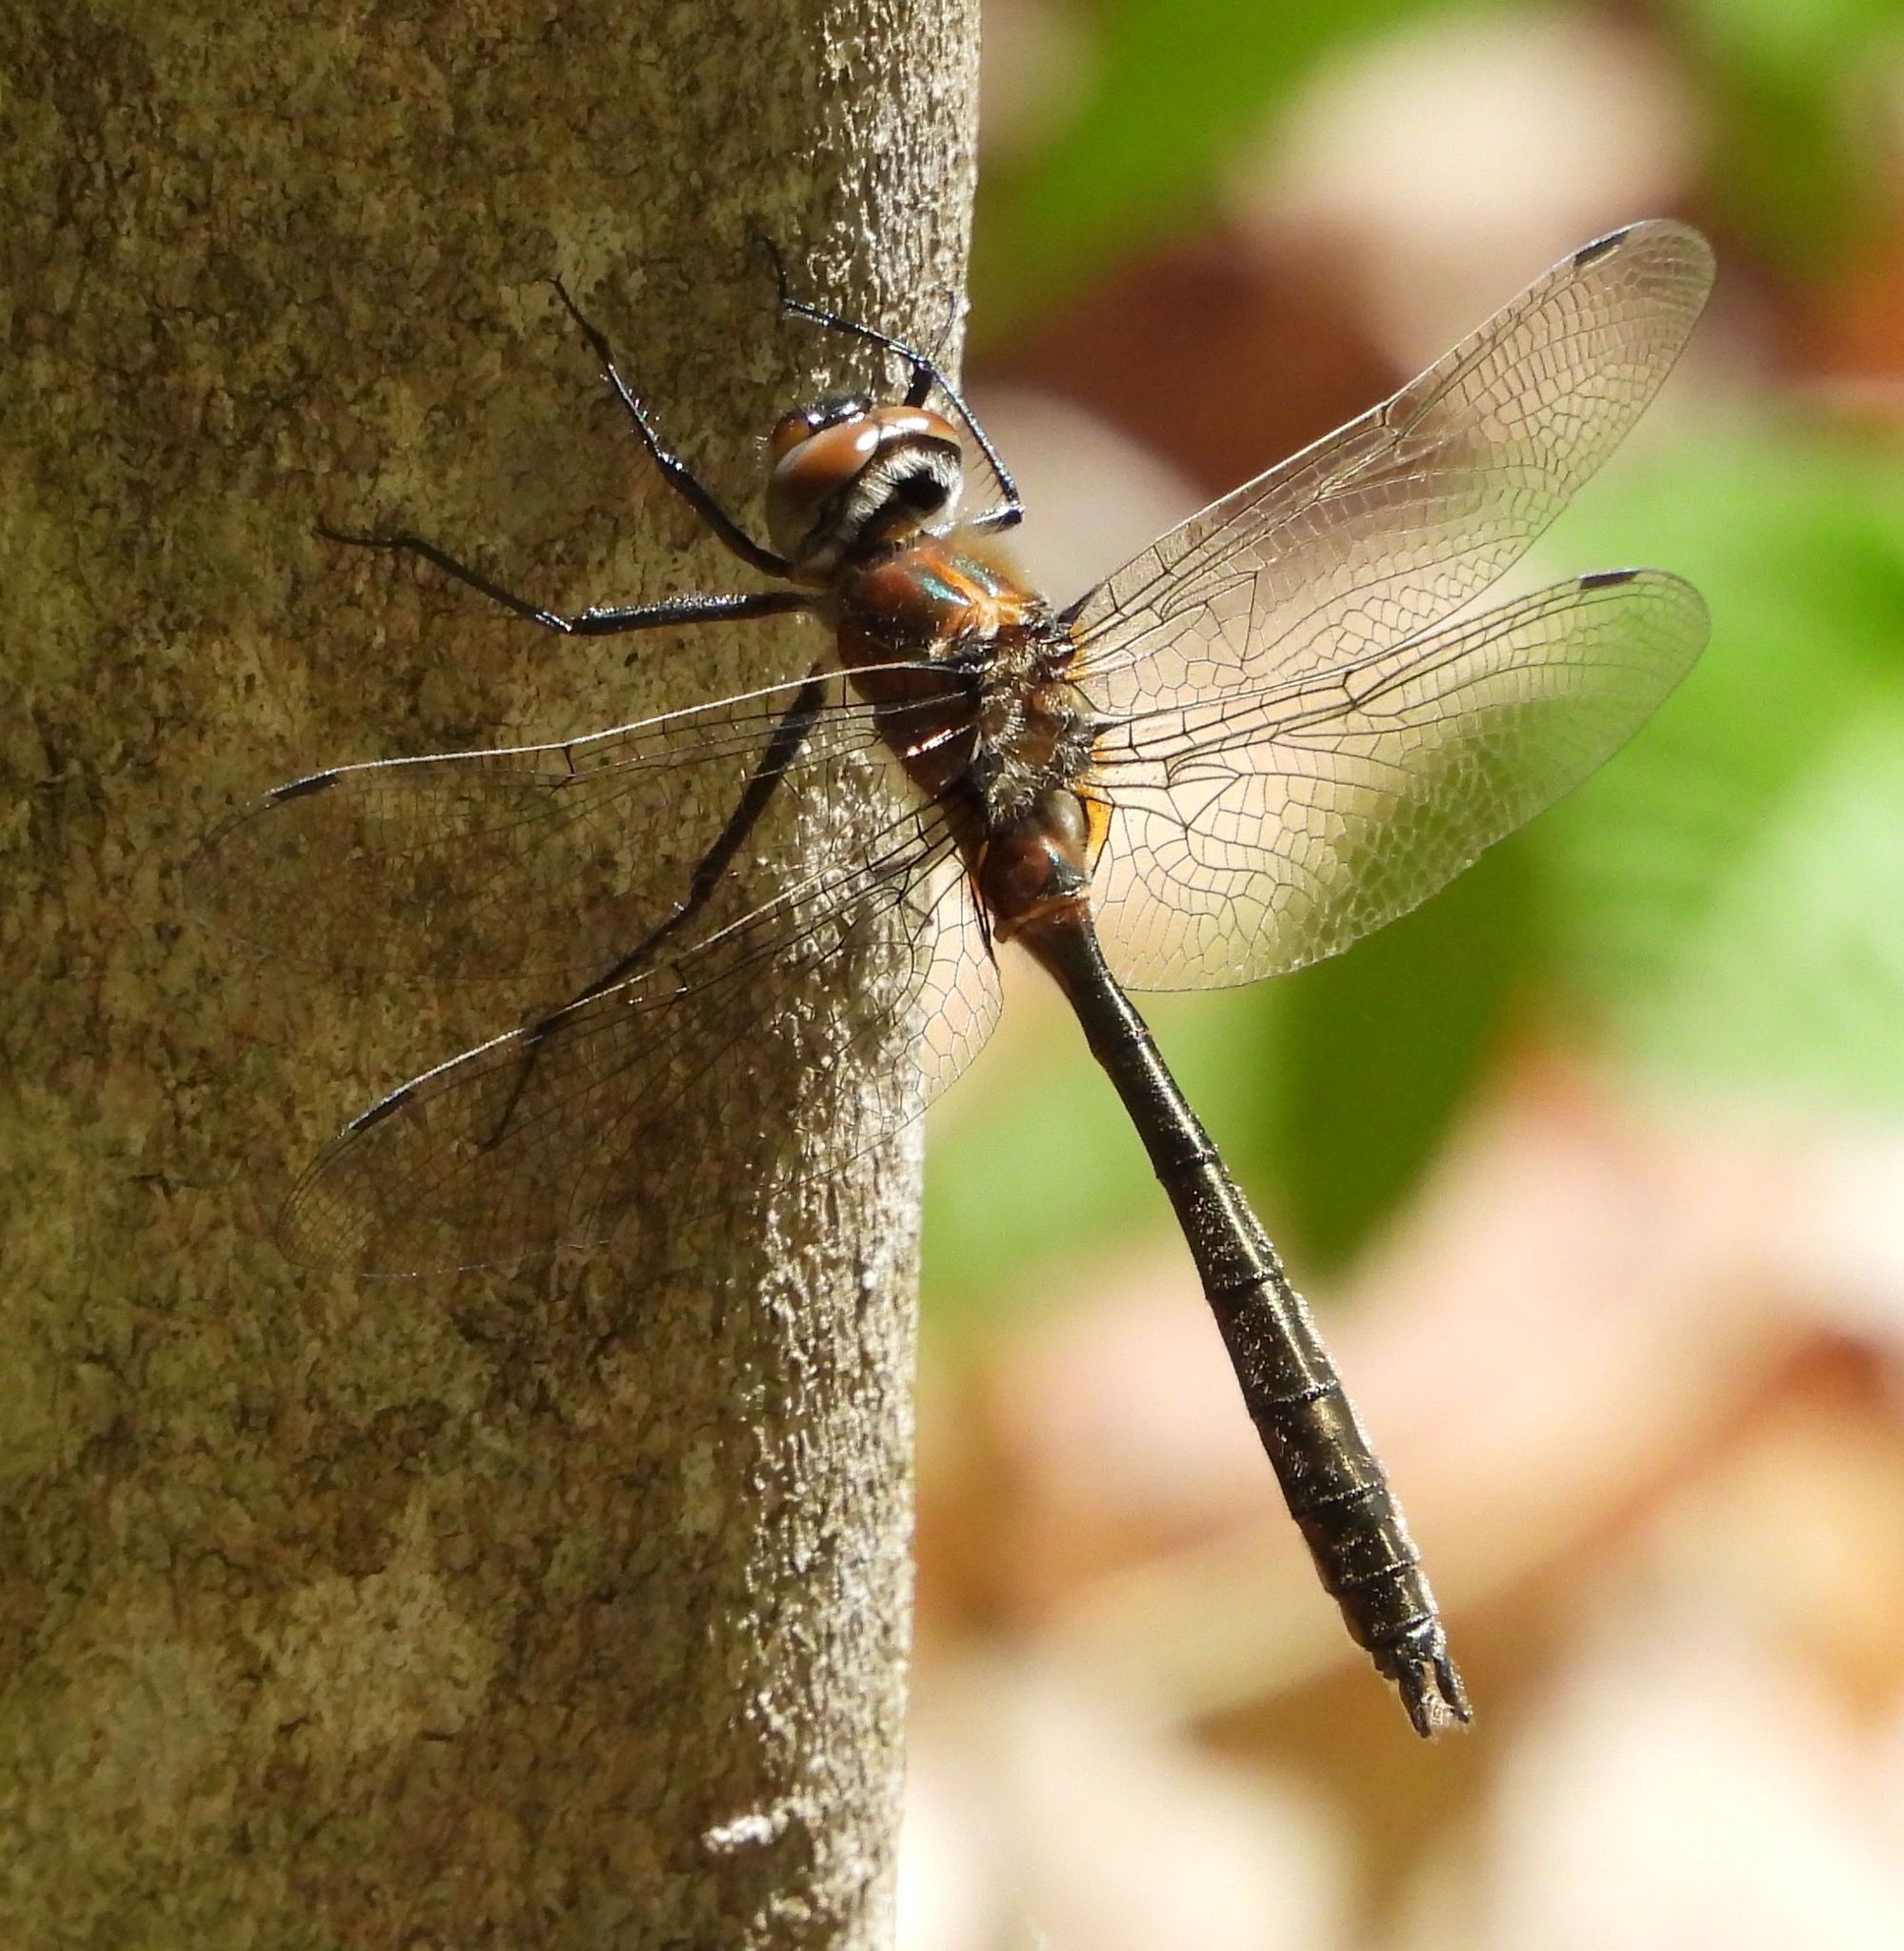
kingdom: Animalia
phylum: Arthropoda
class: Insecta
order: Odonata
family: Corduliidae
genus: Cordulia
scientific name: Cordulia shurtleffii
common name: American emerald
